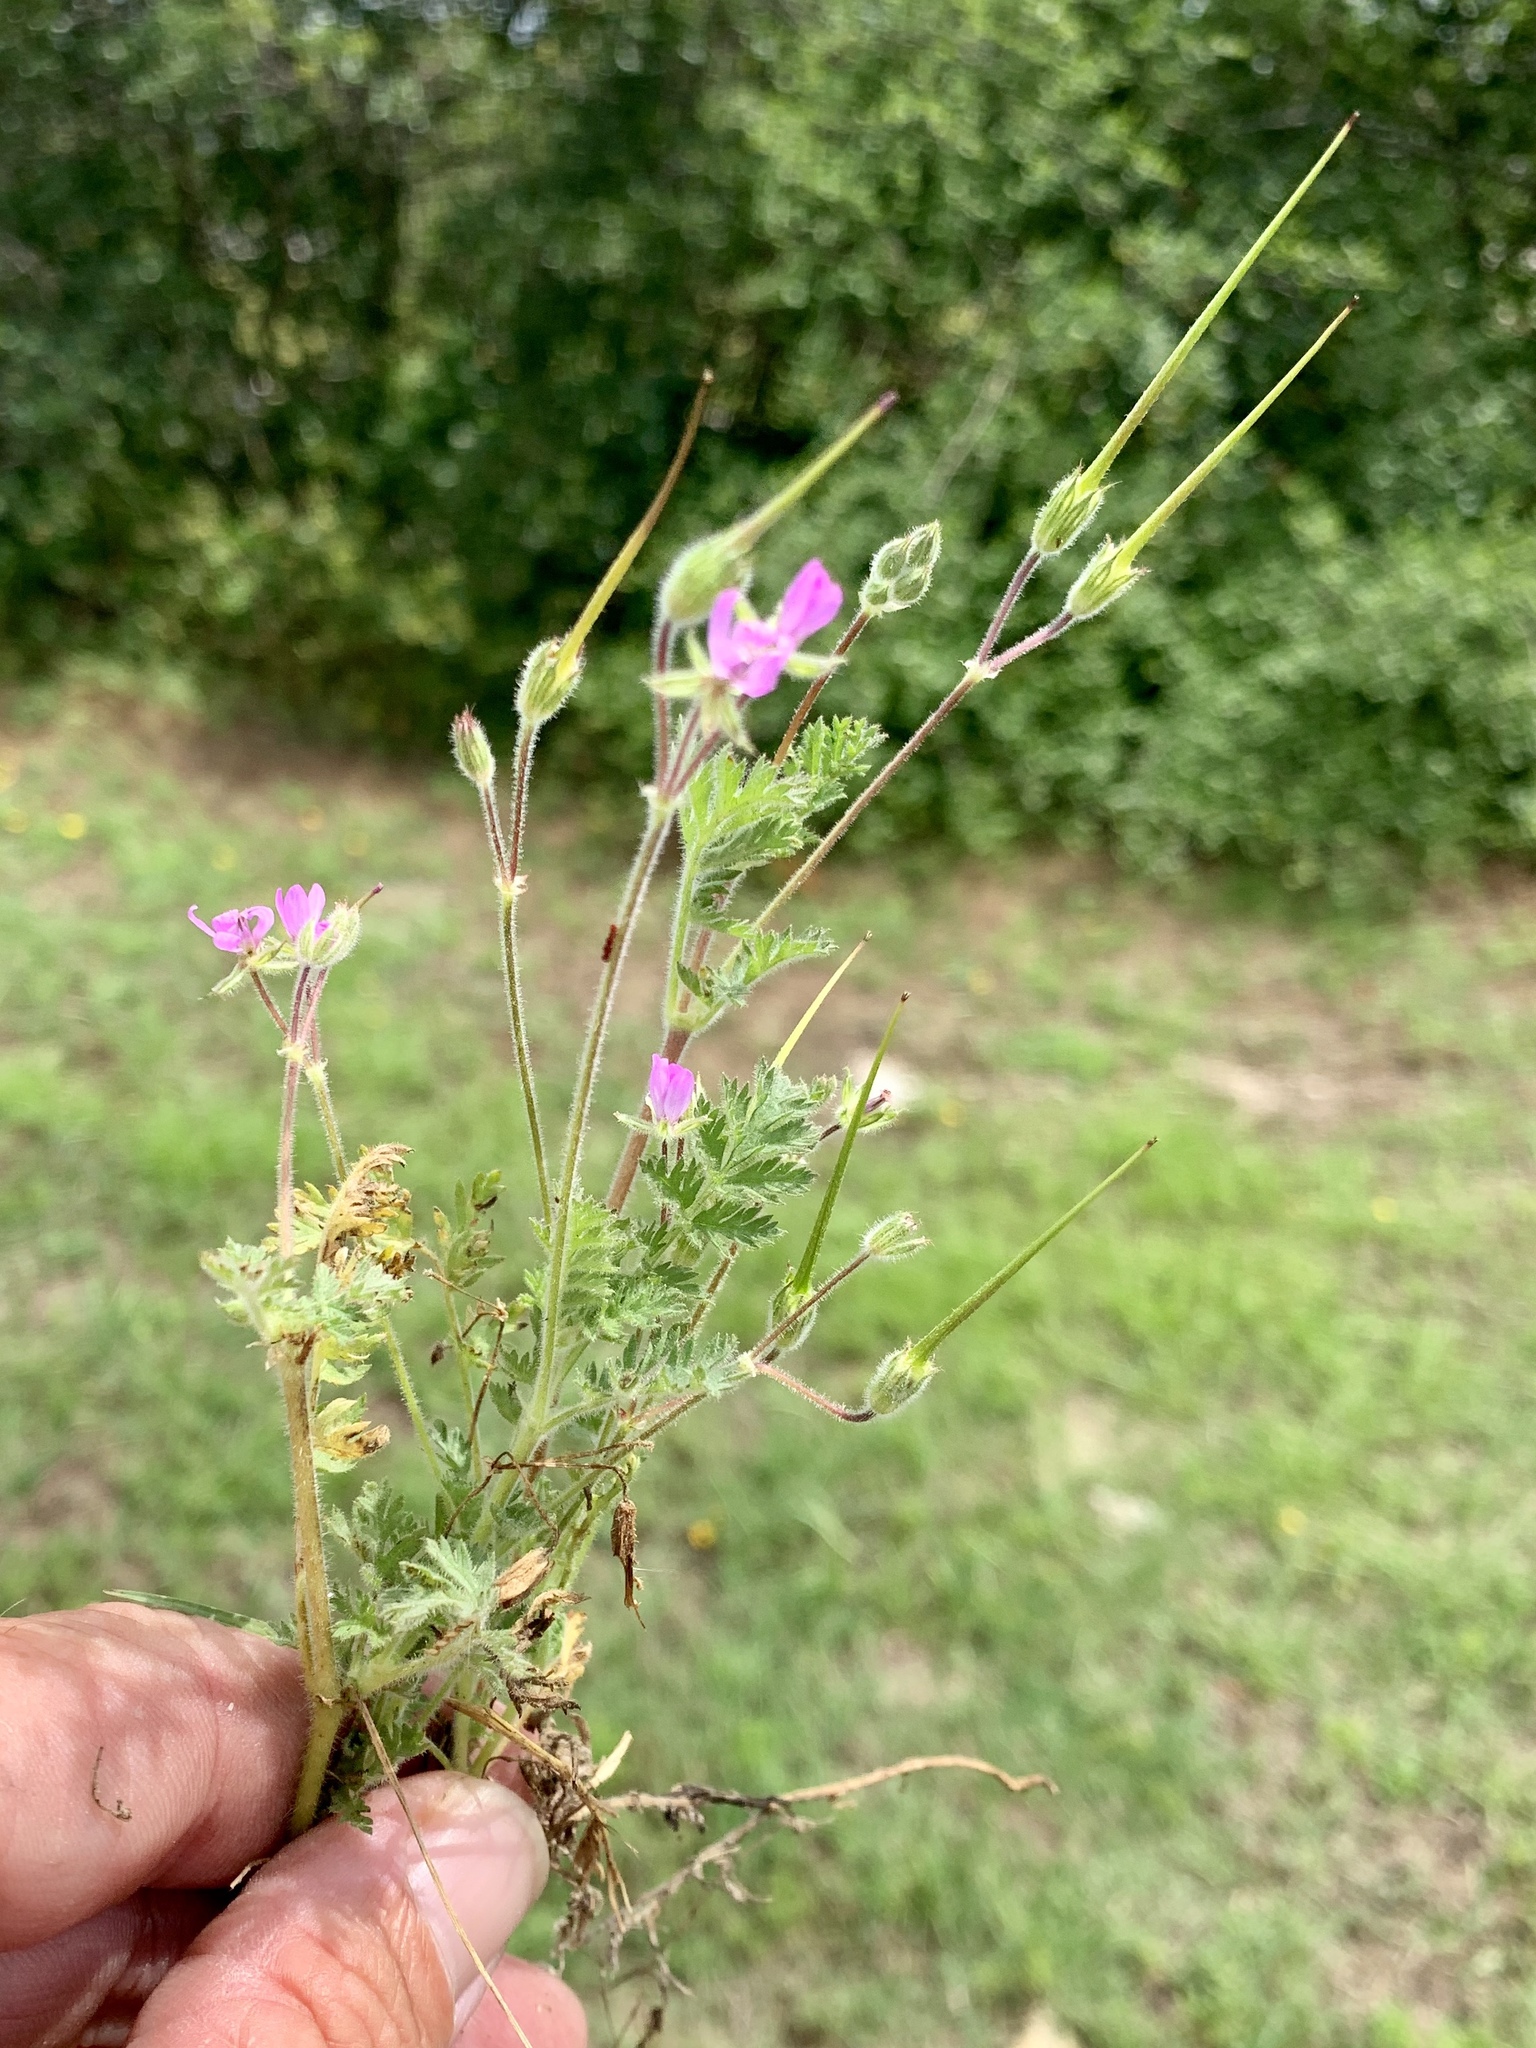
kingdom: Plantae
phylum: Tracheophyta
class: Magnoliopsida
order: Geraniales
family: Geraniaceae
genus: Erodium
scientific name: Erodium cicutarium
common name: Common stork's-bill
